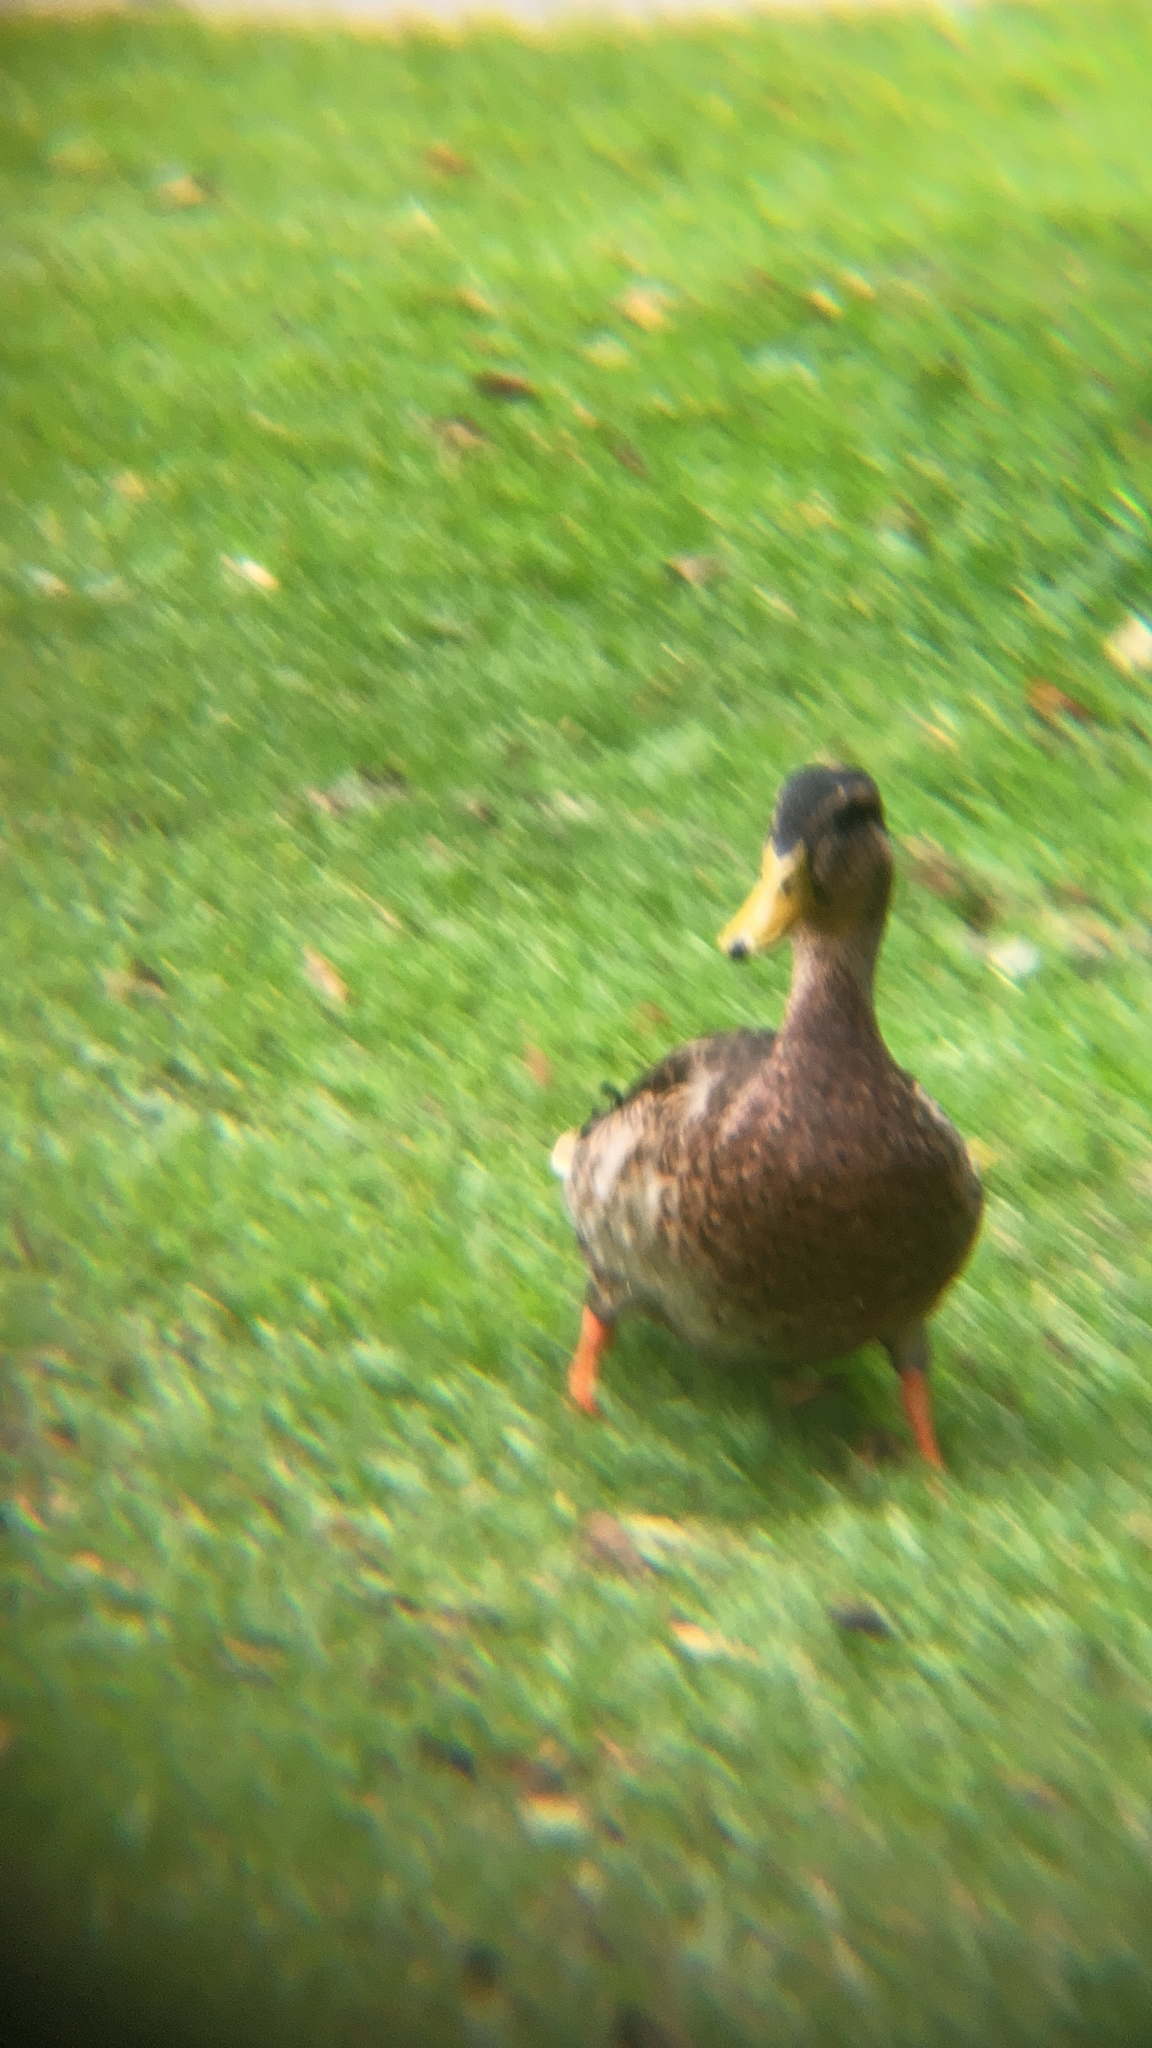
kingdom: Animalia
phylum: Chordata
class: Aves
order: Anseriformes
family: Anatidae
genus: Anas
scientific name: Anas platyrhynchos
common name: Mallard
